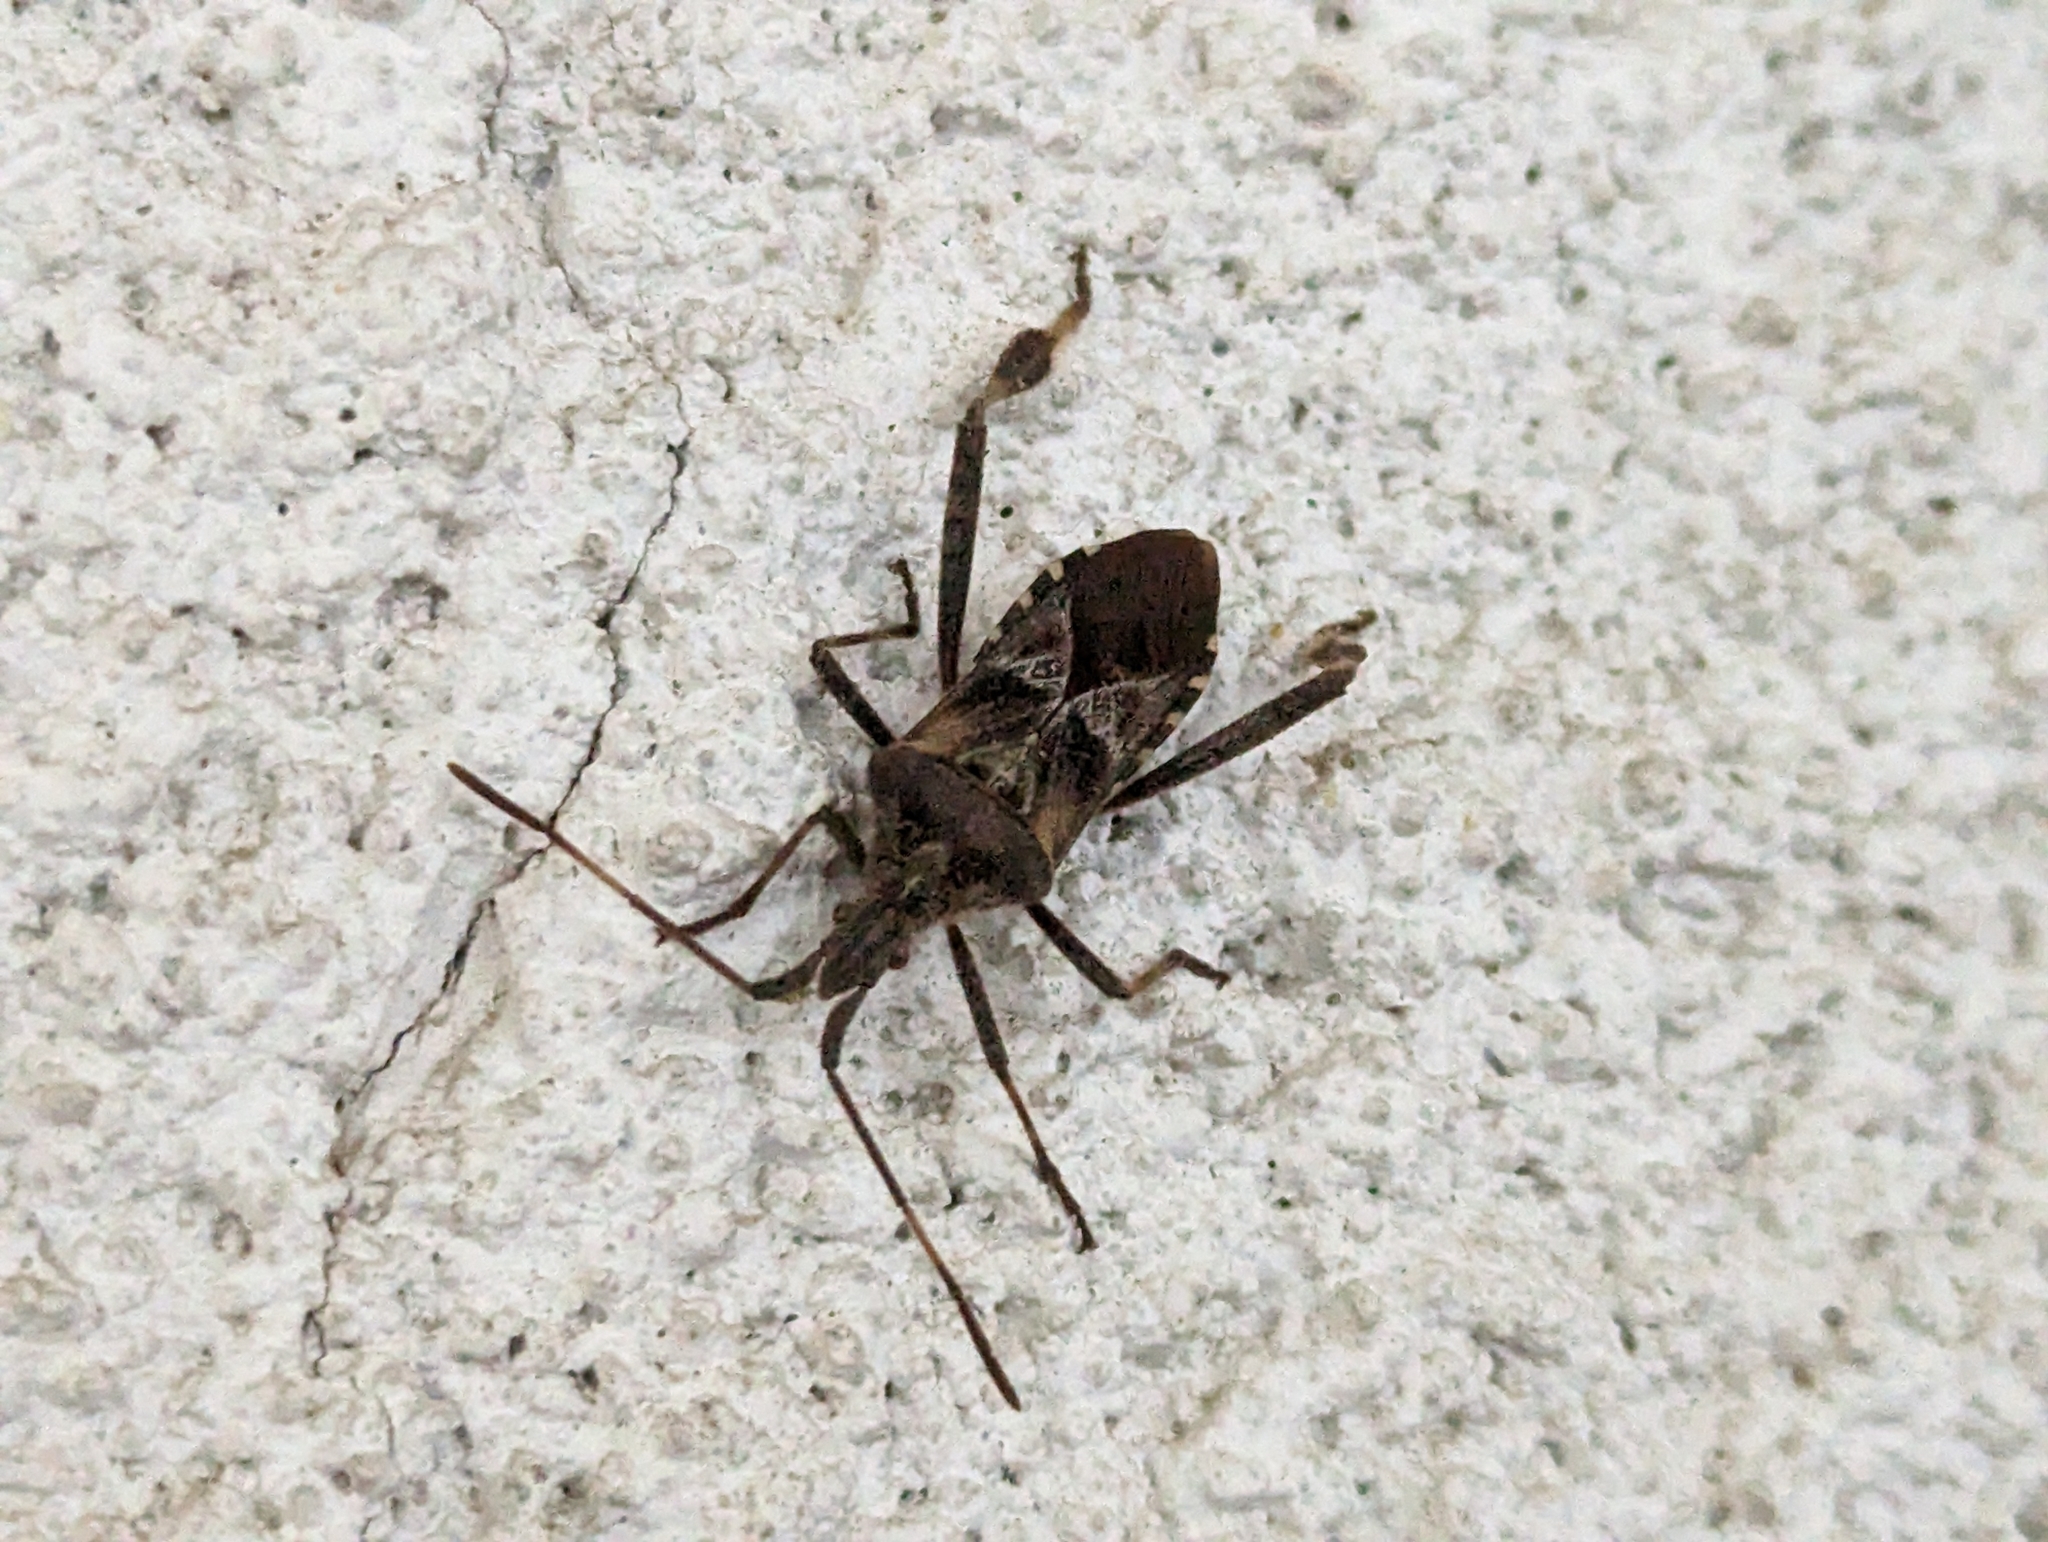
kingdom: Animalia
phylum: Arthropoda
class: Insecta
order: Hemiptera
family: Coreidae
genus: Leptoglossus
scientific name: Leptoglossus occidentalis
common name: Western conifer-seed bug
